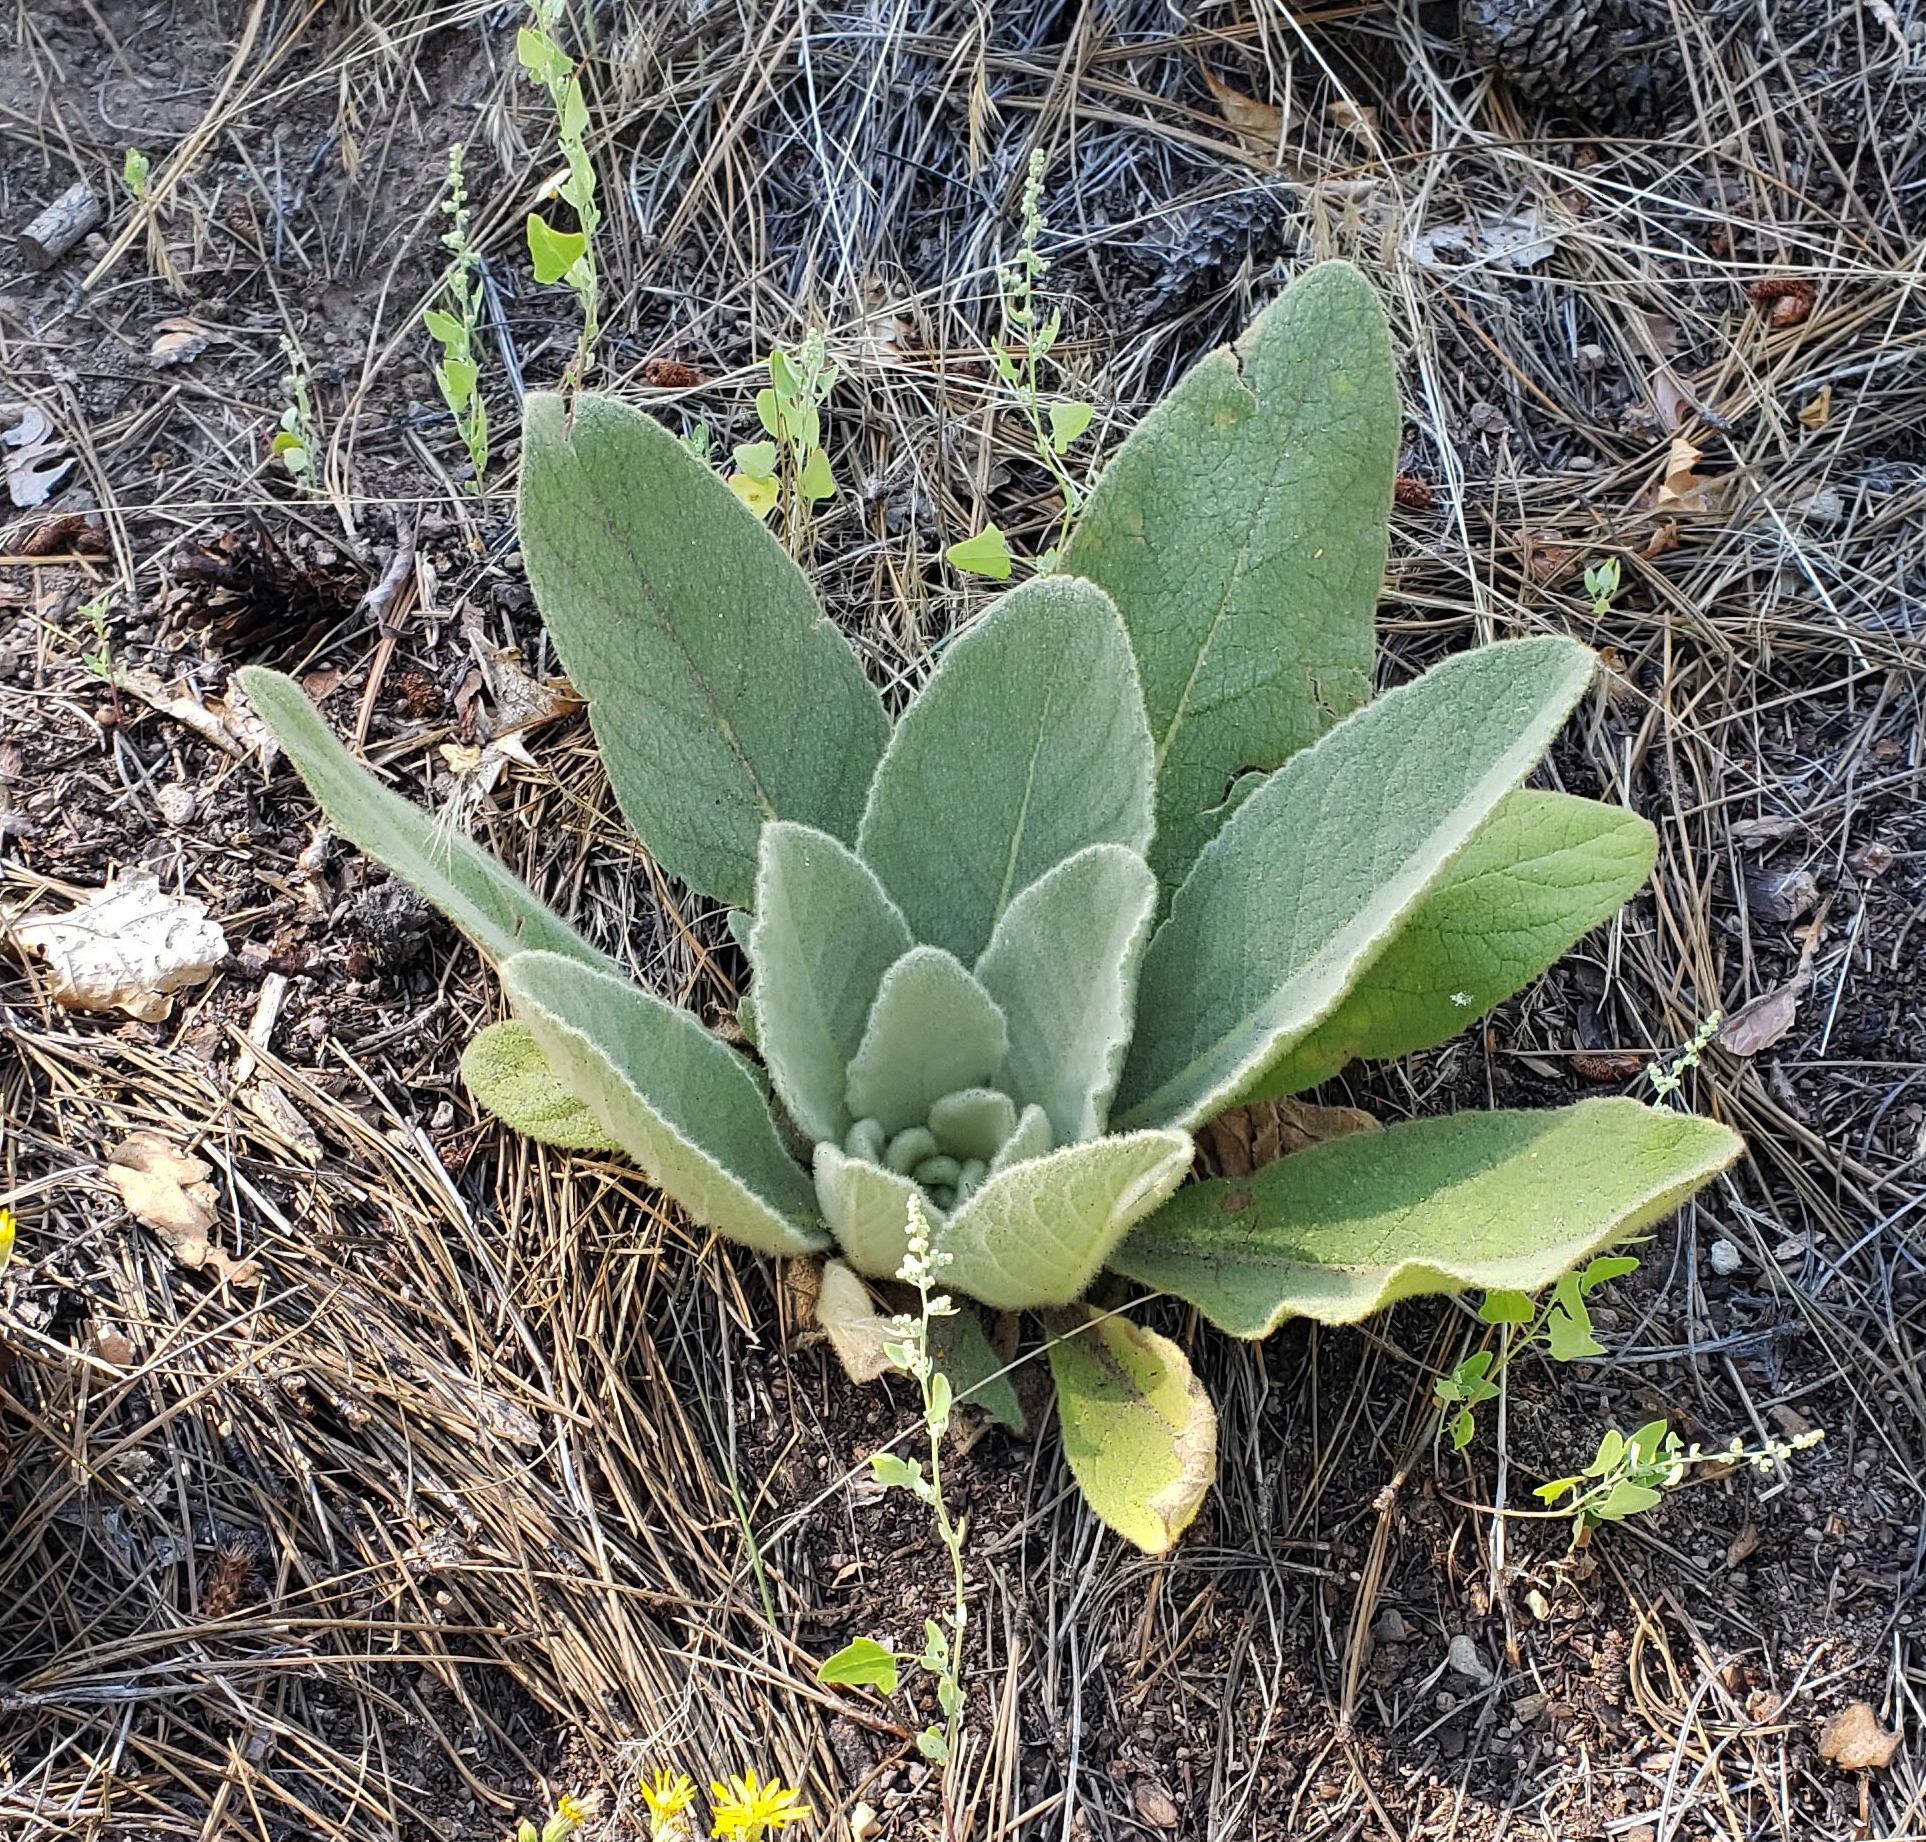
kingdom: Plantae
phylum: Tracheophyta
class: Magnoliopsida
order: Lamiales
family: Scrophulariaceae
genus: Verbascum
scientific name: Verbascum thapsus
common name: Common mullein
